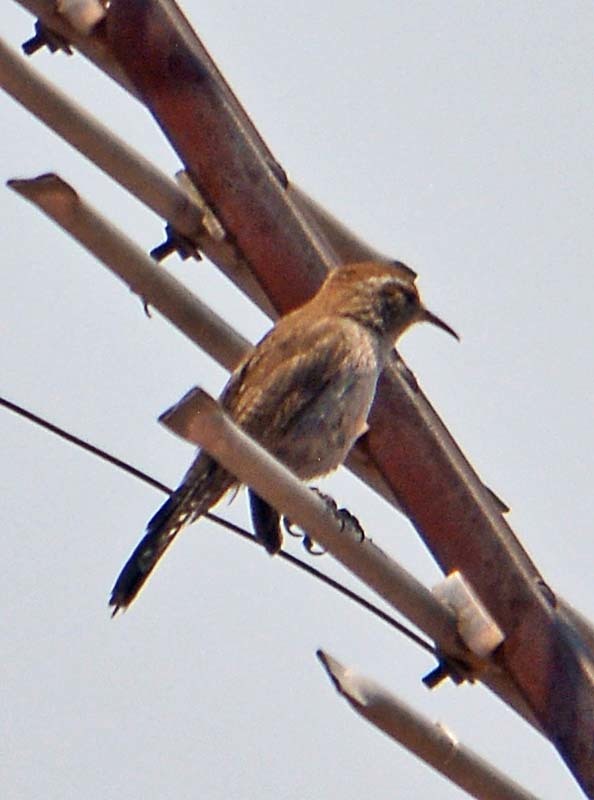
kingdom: Animalia
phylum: Chordata
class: Aves
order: Passeriformes
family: Troglodytidae
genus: Thryomanes
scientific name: Thryomanes bewickii
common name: Bewick's wren
